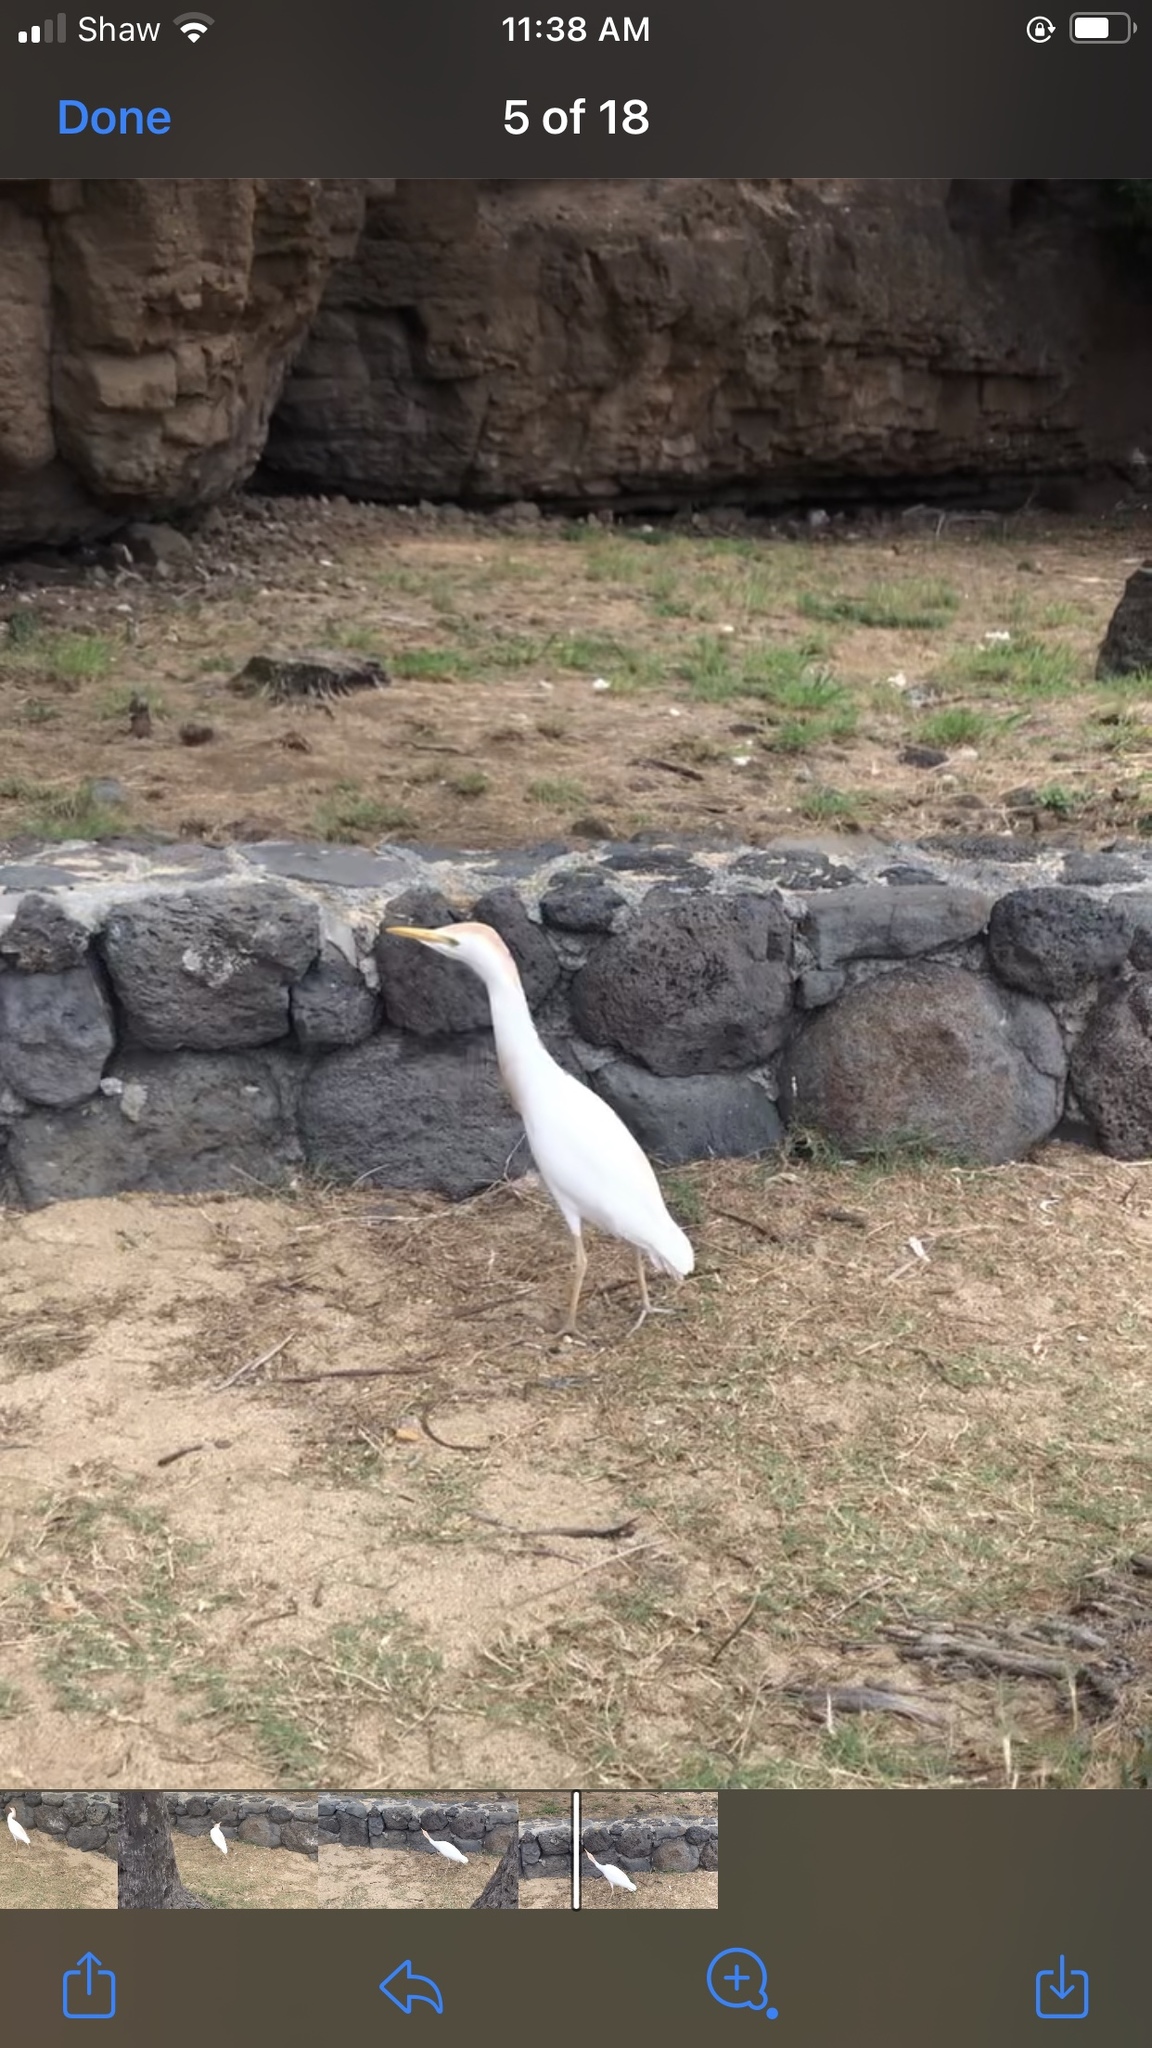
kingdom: Animalia
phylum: Chordata
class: Aves
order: Pelecaniformes
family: Ardeidae
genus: Bubulcus
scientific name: Bubulcus ibis
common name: Cattle egret
